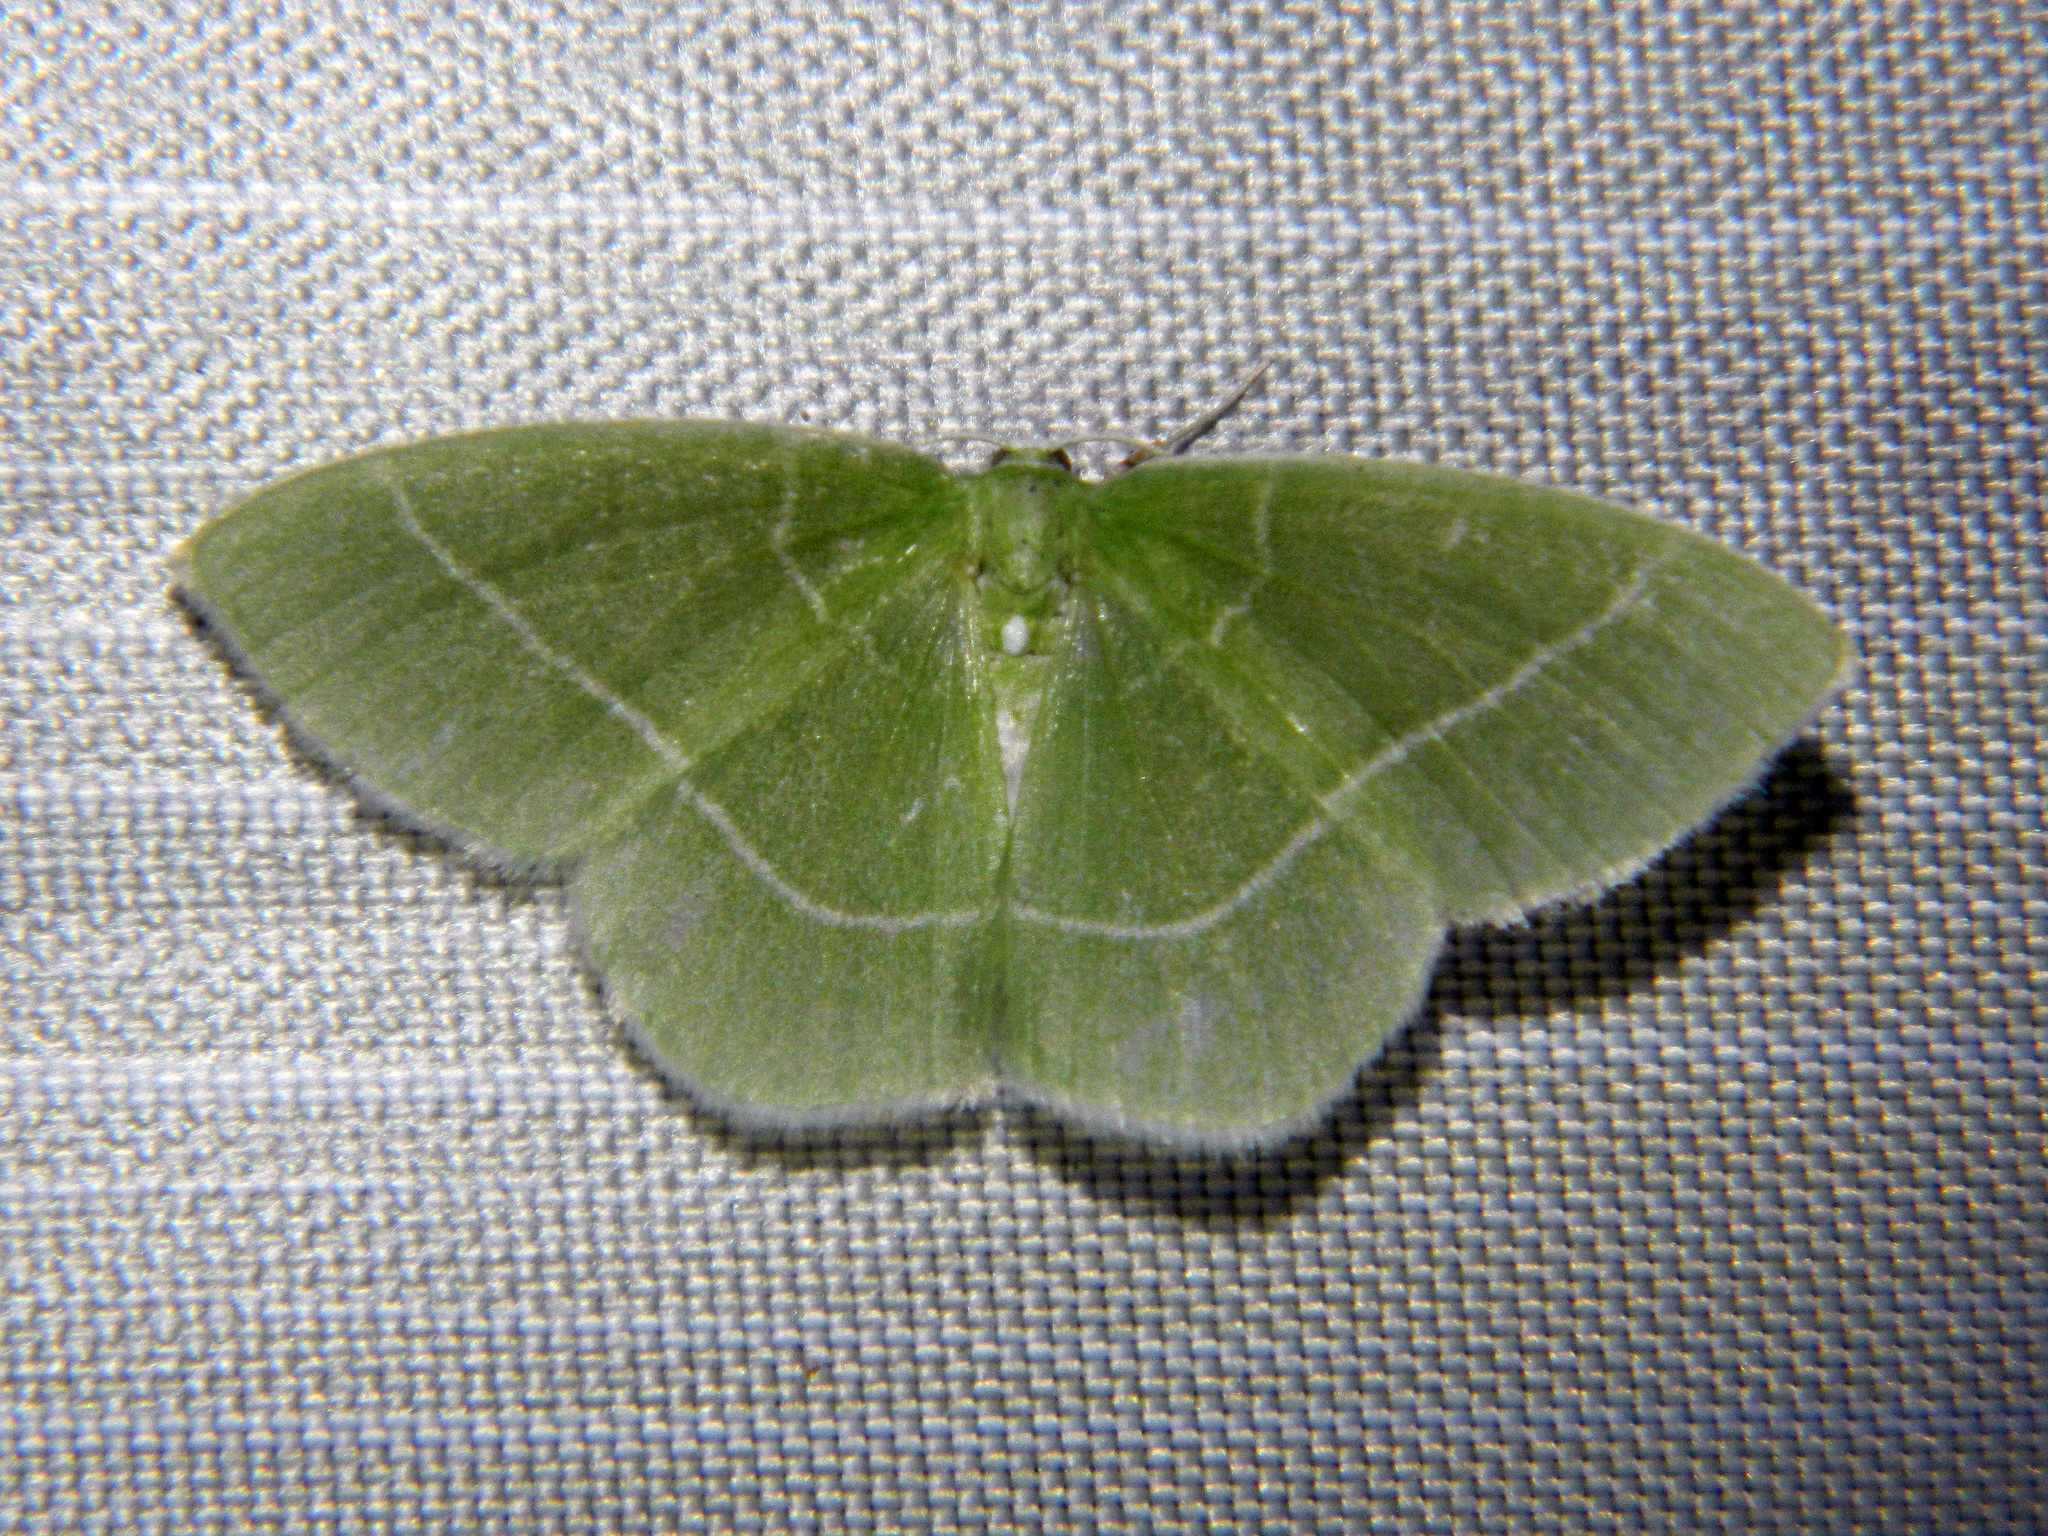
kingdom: Animalia
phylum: Arthropoda
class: Insecta
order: Lepidoptera
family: Geometridae
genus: Nemoria
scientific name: Nemoria mimosaria
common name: White-fringed emerald
